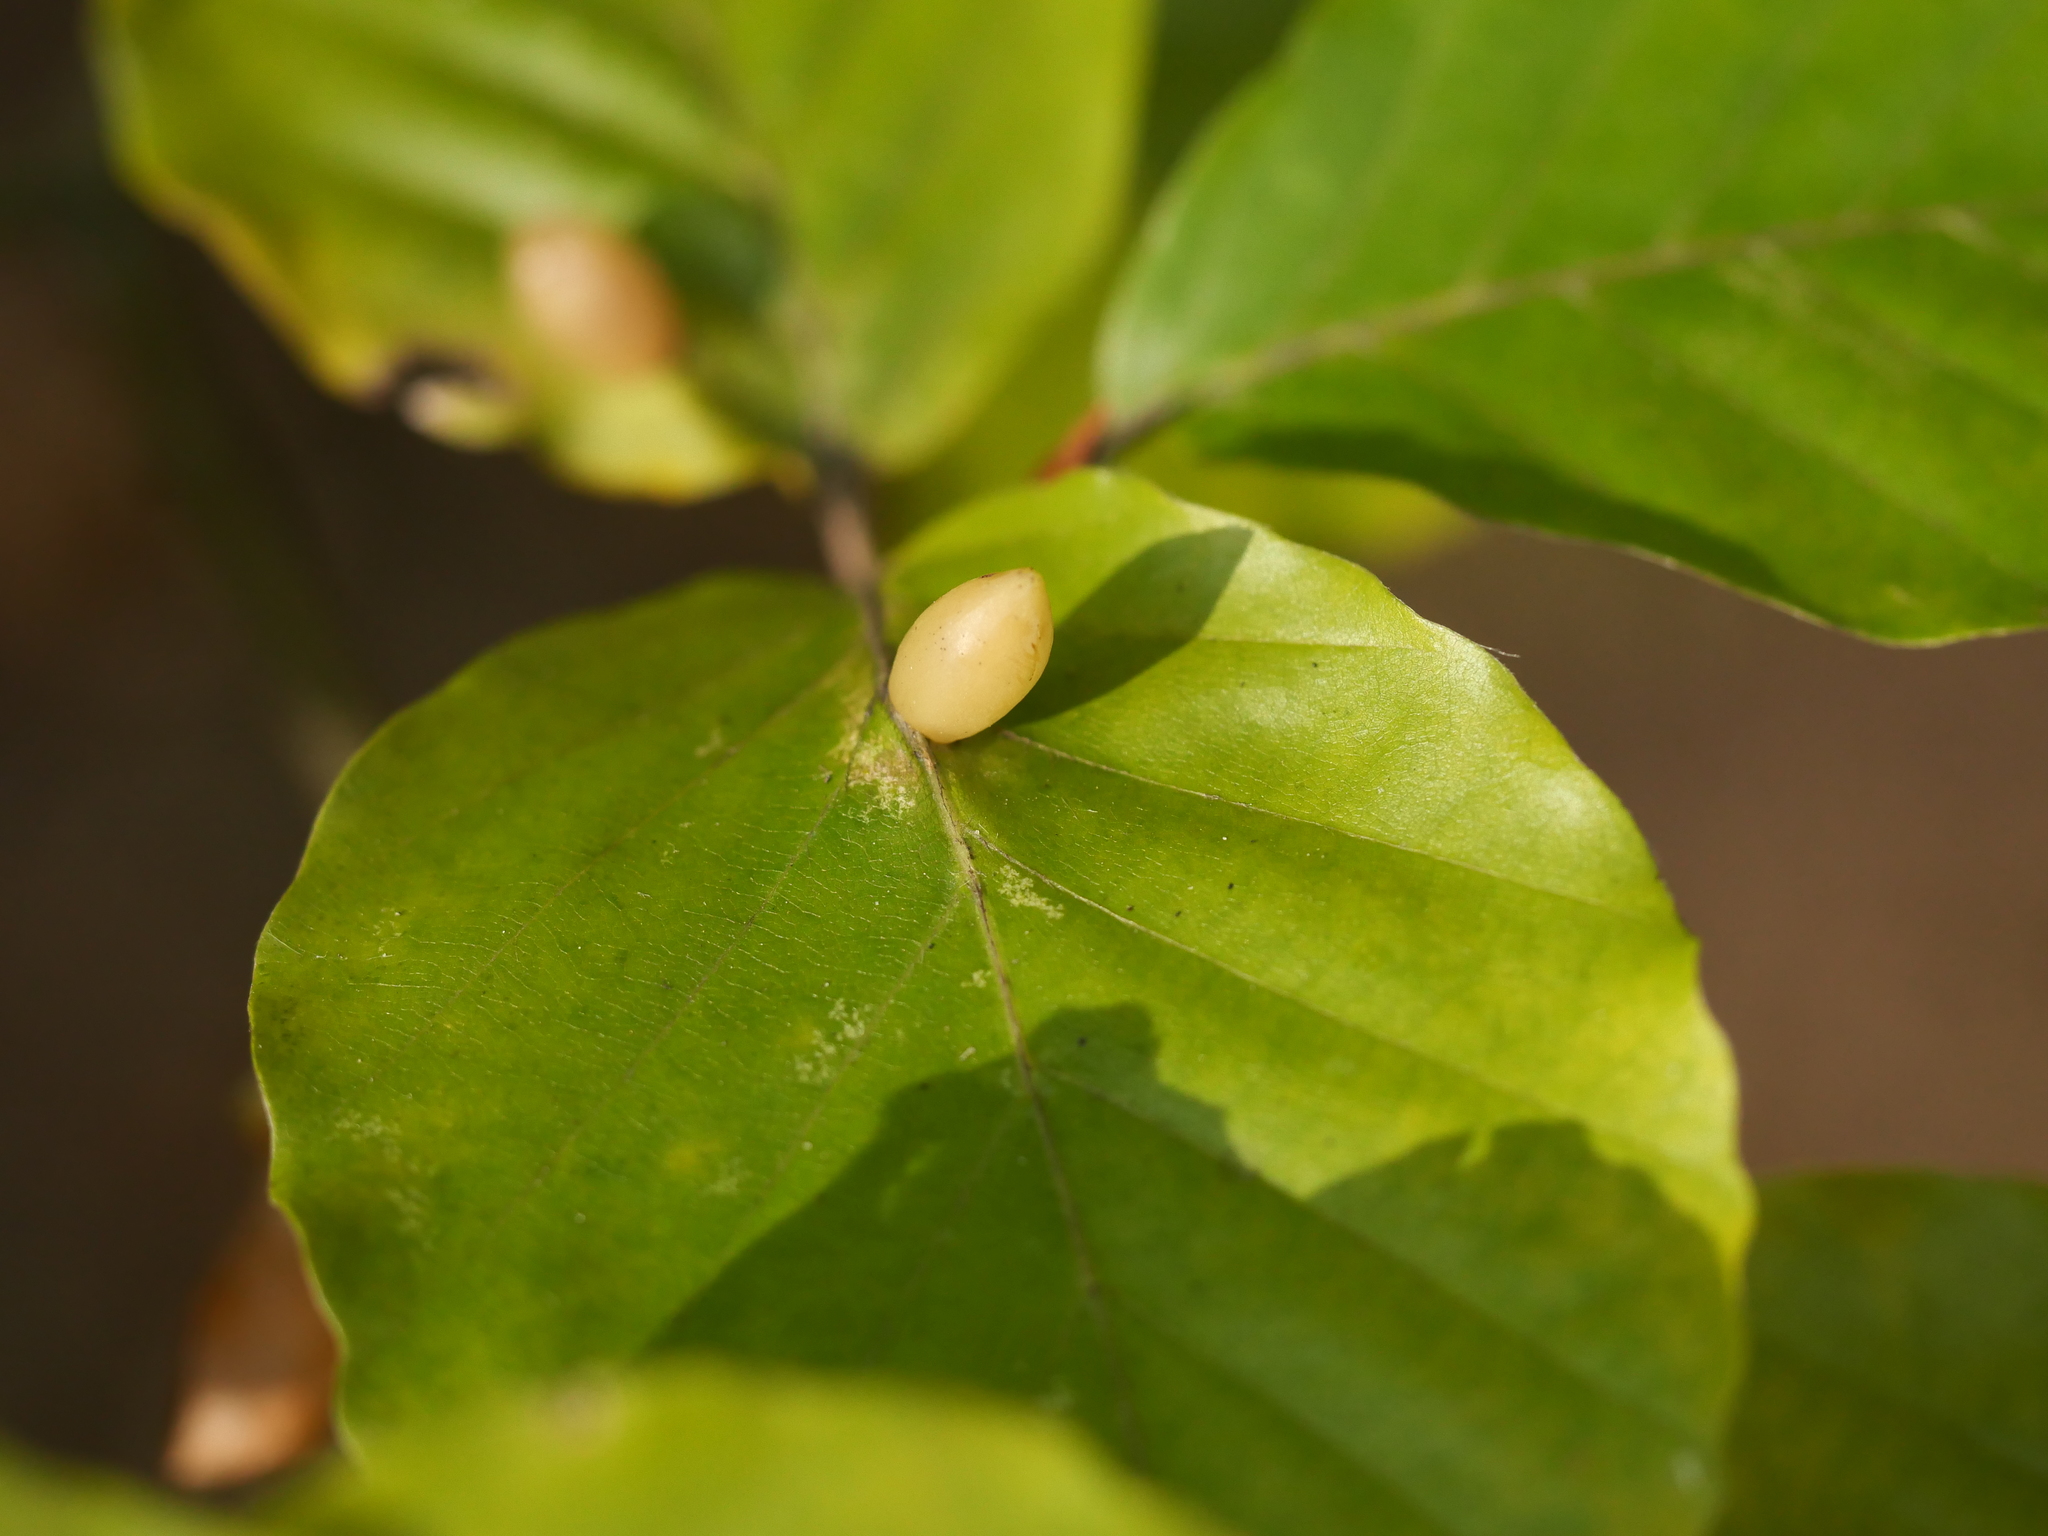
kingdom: Animalia
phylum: Arthropoda
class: Insecta
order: Diptera
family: Cecidomyiidae
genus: Mikiola
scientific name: Mikiola fagi
